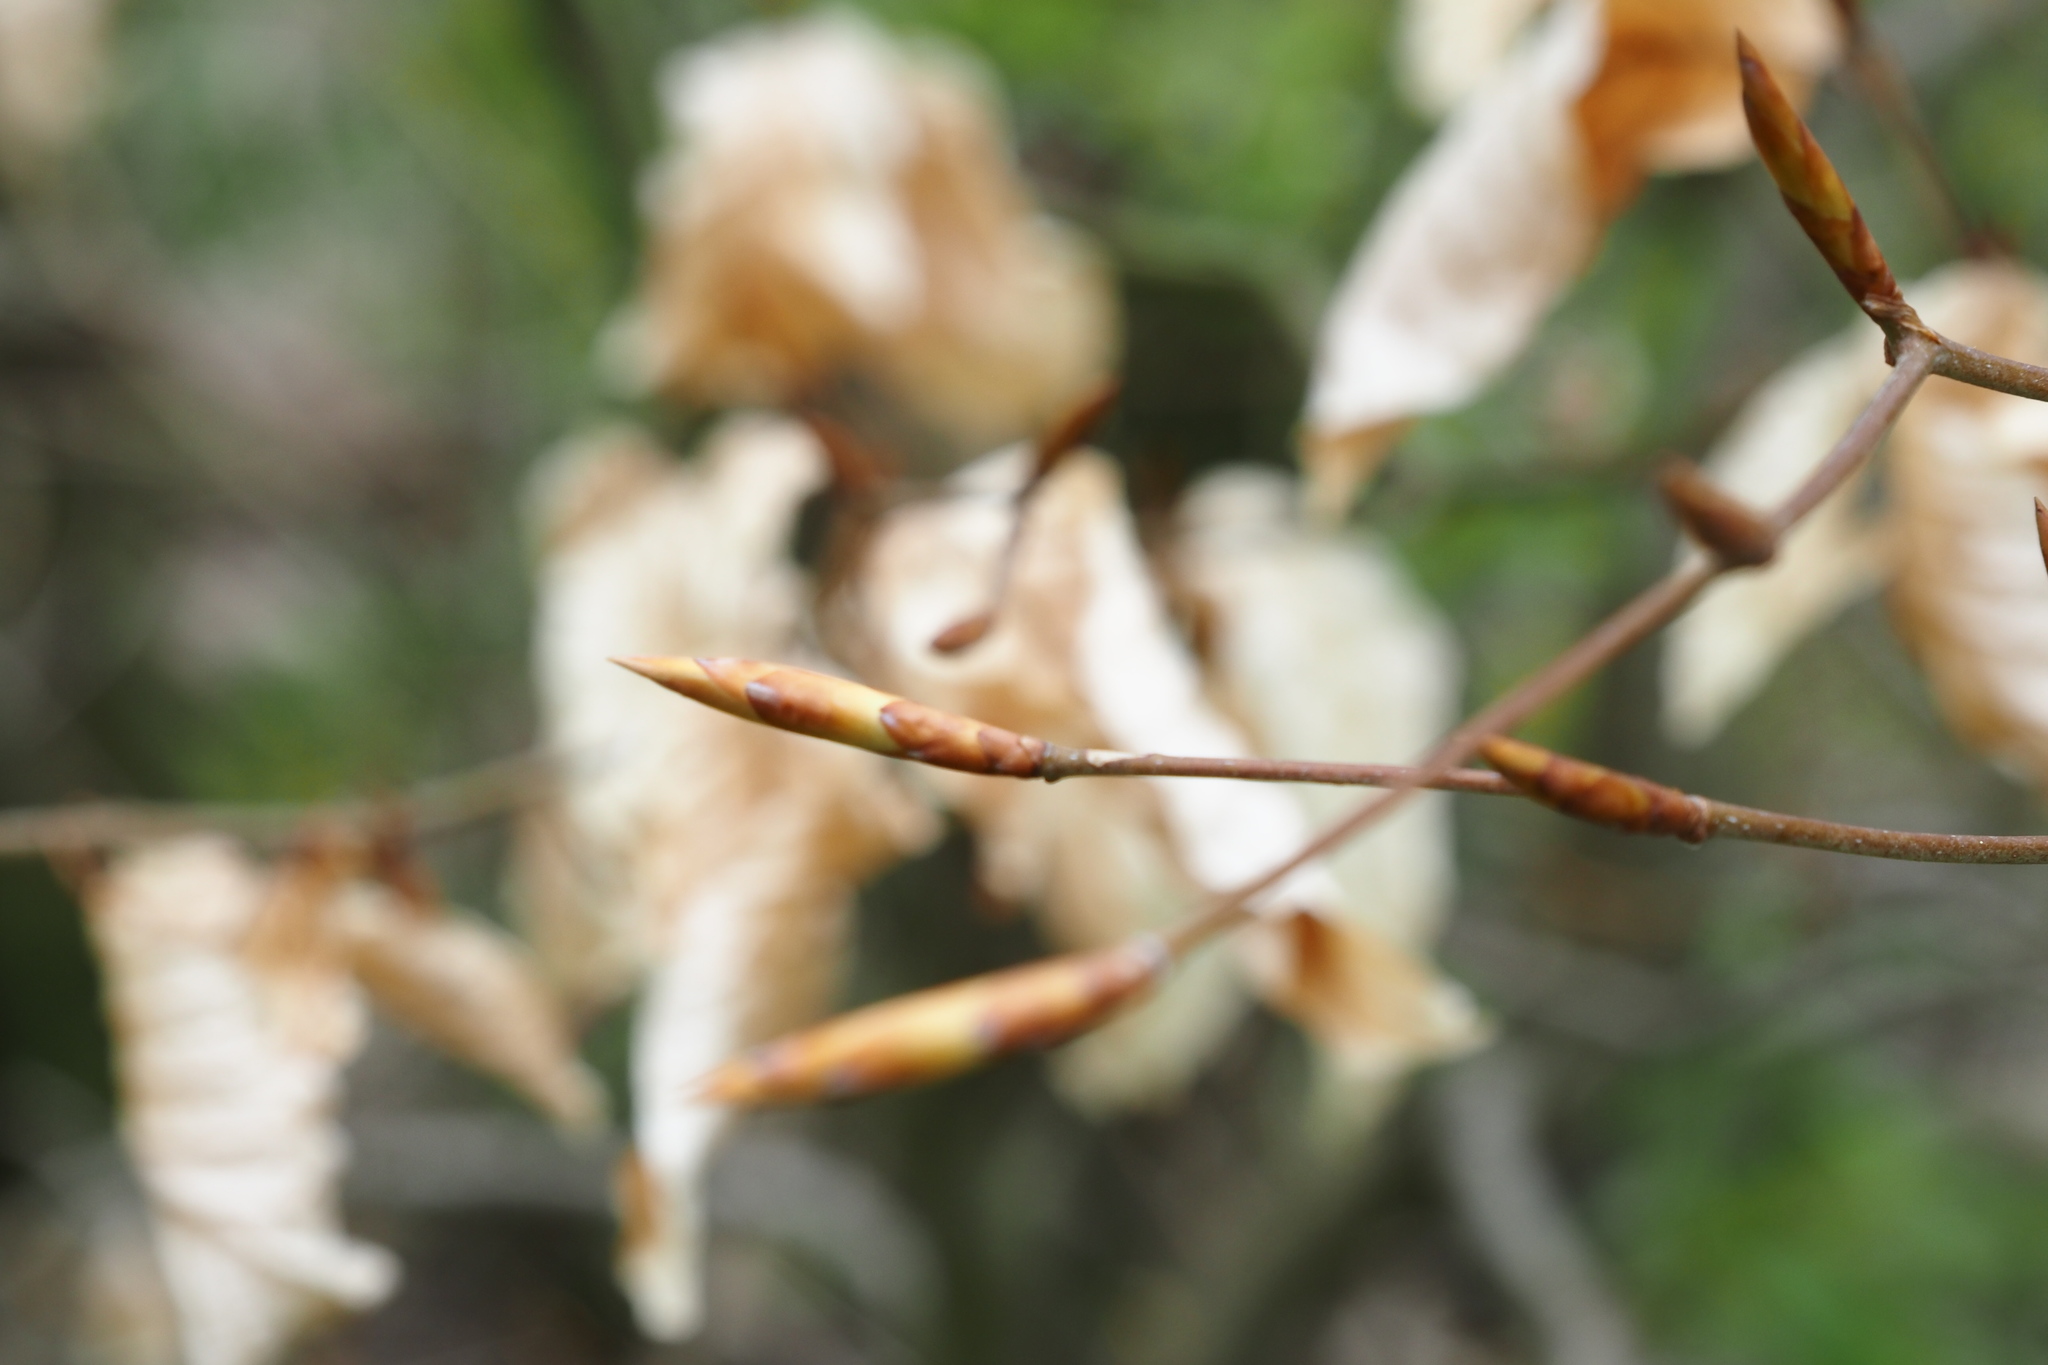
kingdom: Plantae
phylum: Tracheophyta
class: Magnoliopsida
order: Fagales
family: Fagaceae
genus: Fagus
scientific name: Fagus sylvatica
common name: Beech
